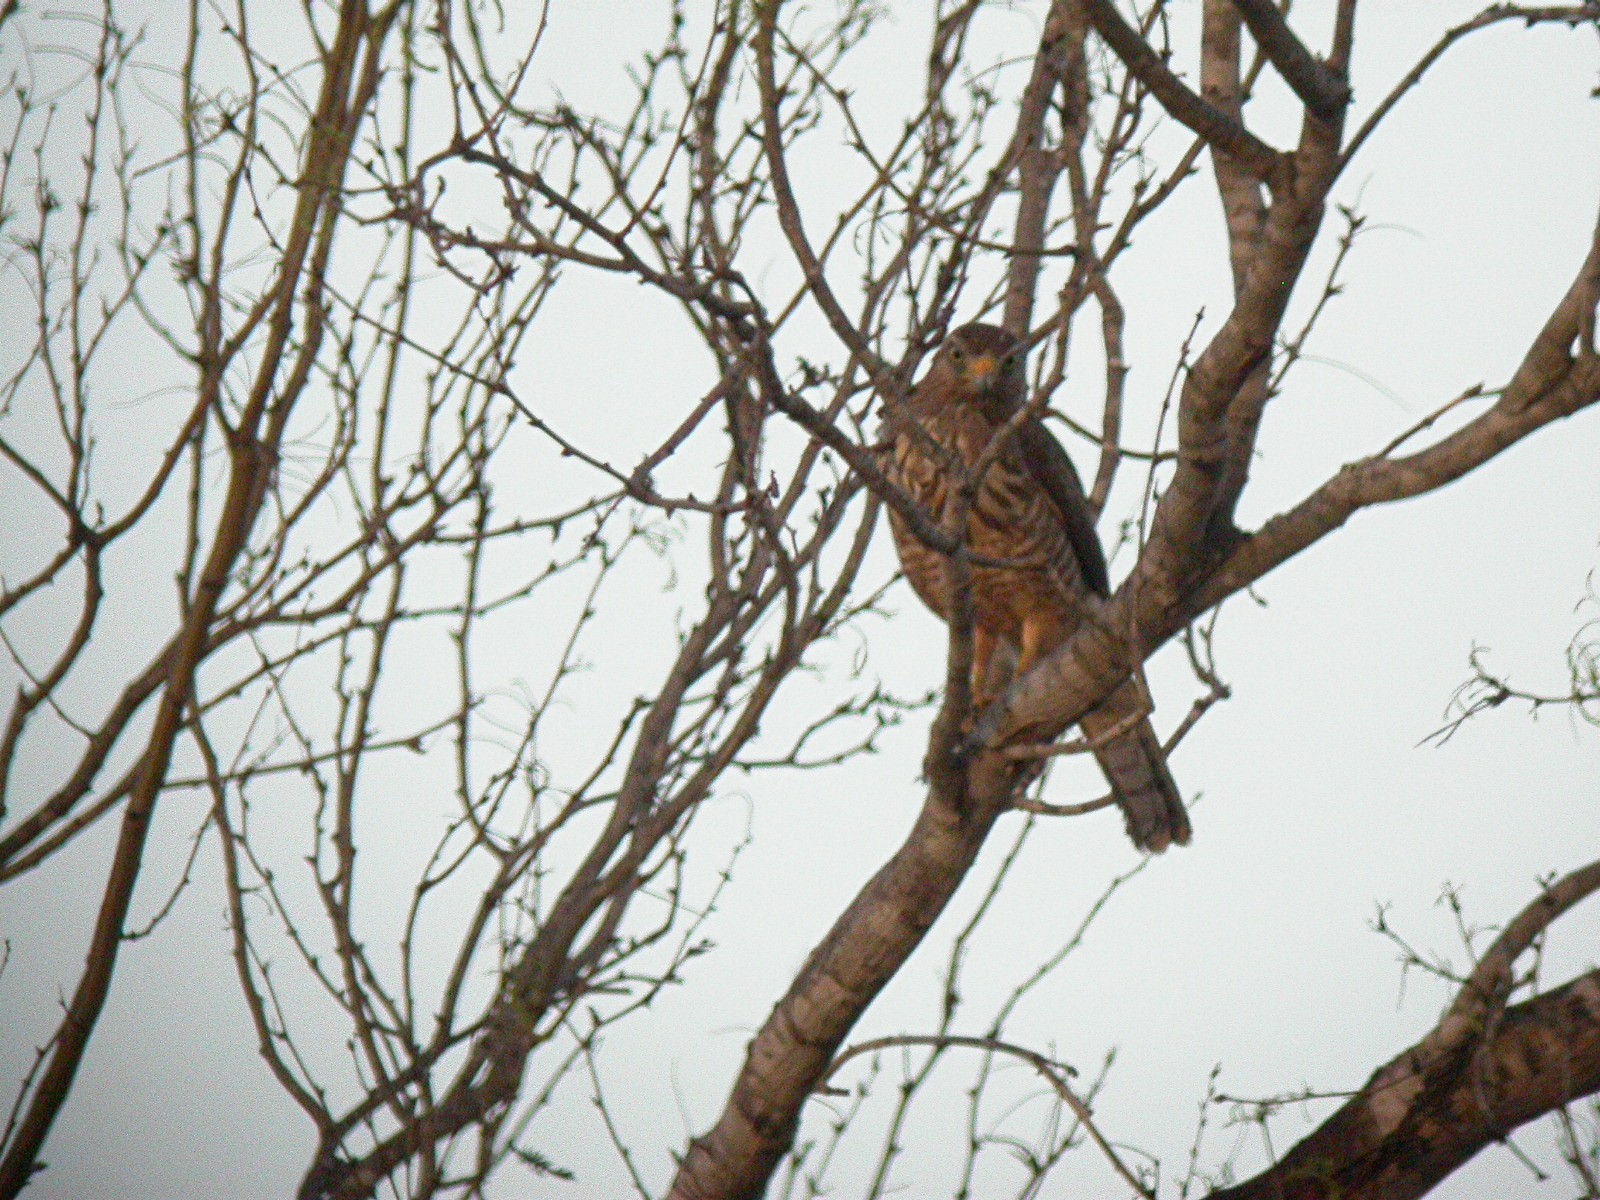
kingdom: Animalia
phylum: Chordata
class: Aves
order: Accipitriformes
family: Accipitridae
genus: Rupornis
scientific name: Rupornis magnirostris
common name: Roadside hawk
